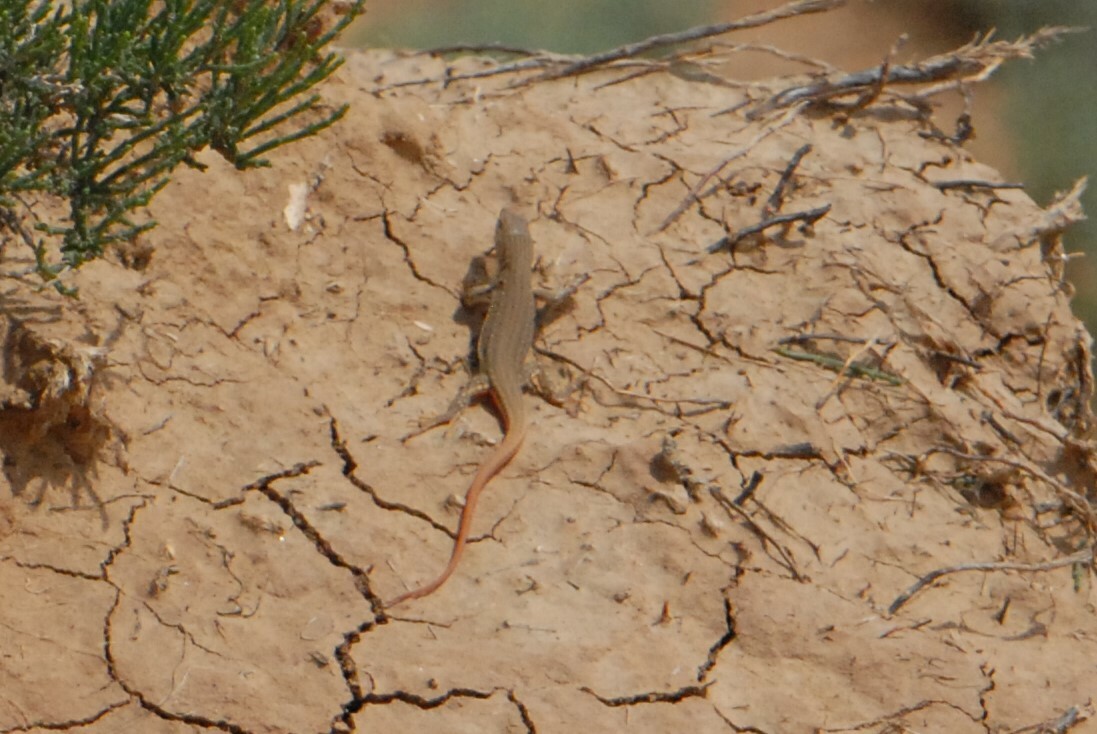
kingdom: Animalia
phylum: Chordata
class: Squamata
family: Lacertidae
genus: Eremias
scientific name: Eremias velox
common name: Central asian racerunner
